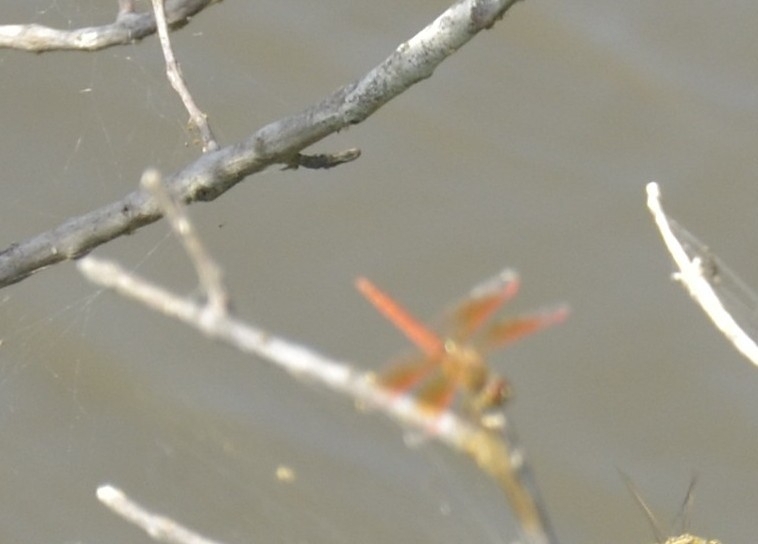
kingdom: Animalia
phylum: Arthropoda
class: Insecta
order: Odonata
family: Libellulidae
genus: Brachythemis
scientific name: Brachythemis contaminata
